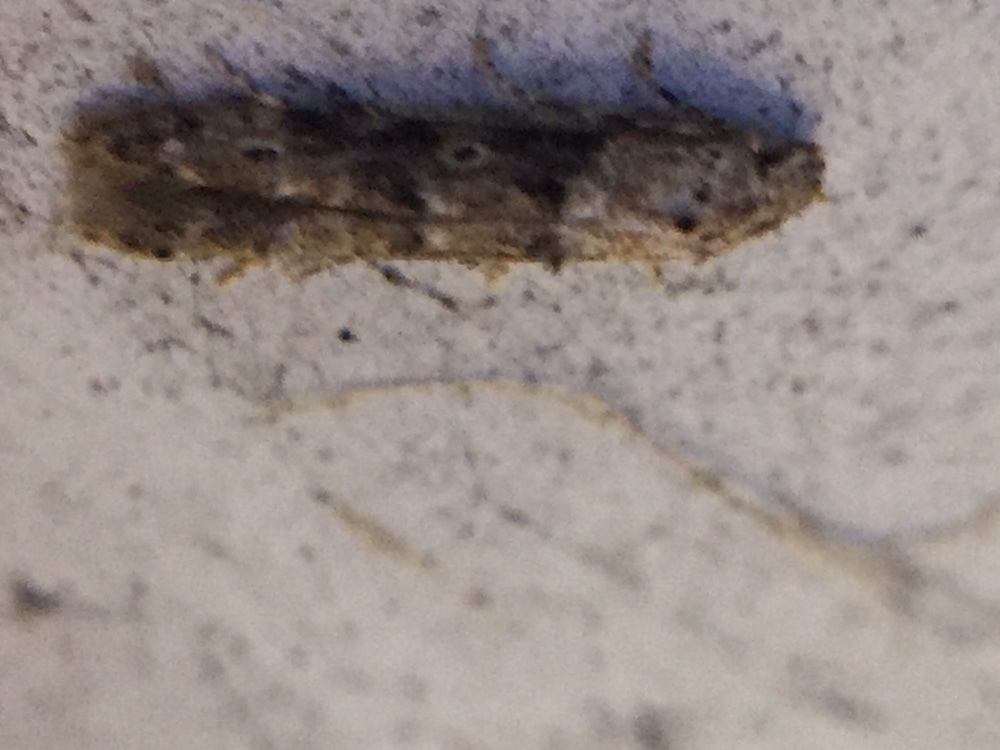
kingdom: Animalia
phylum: Arthropoda
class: Insecta
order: Lepidoptera
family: Elachistidae
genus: Microcolona
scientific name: Microcolona limodes
